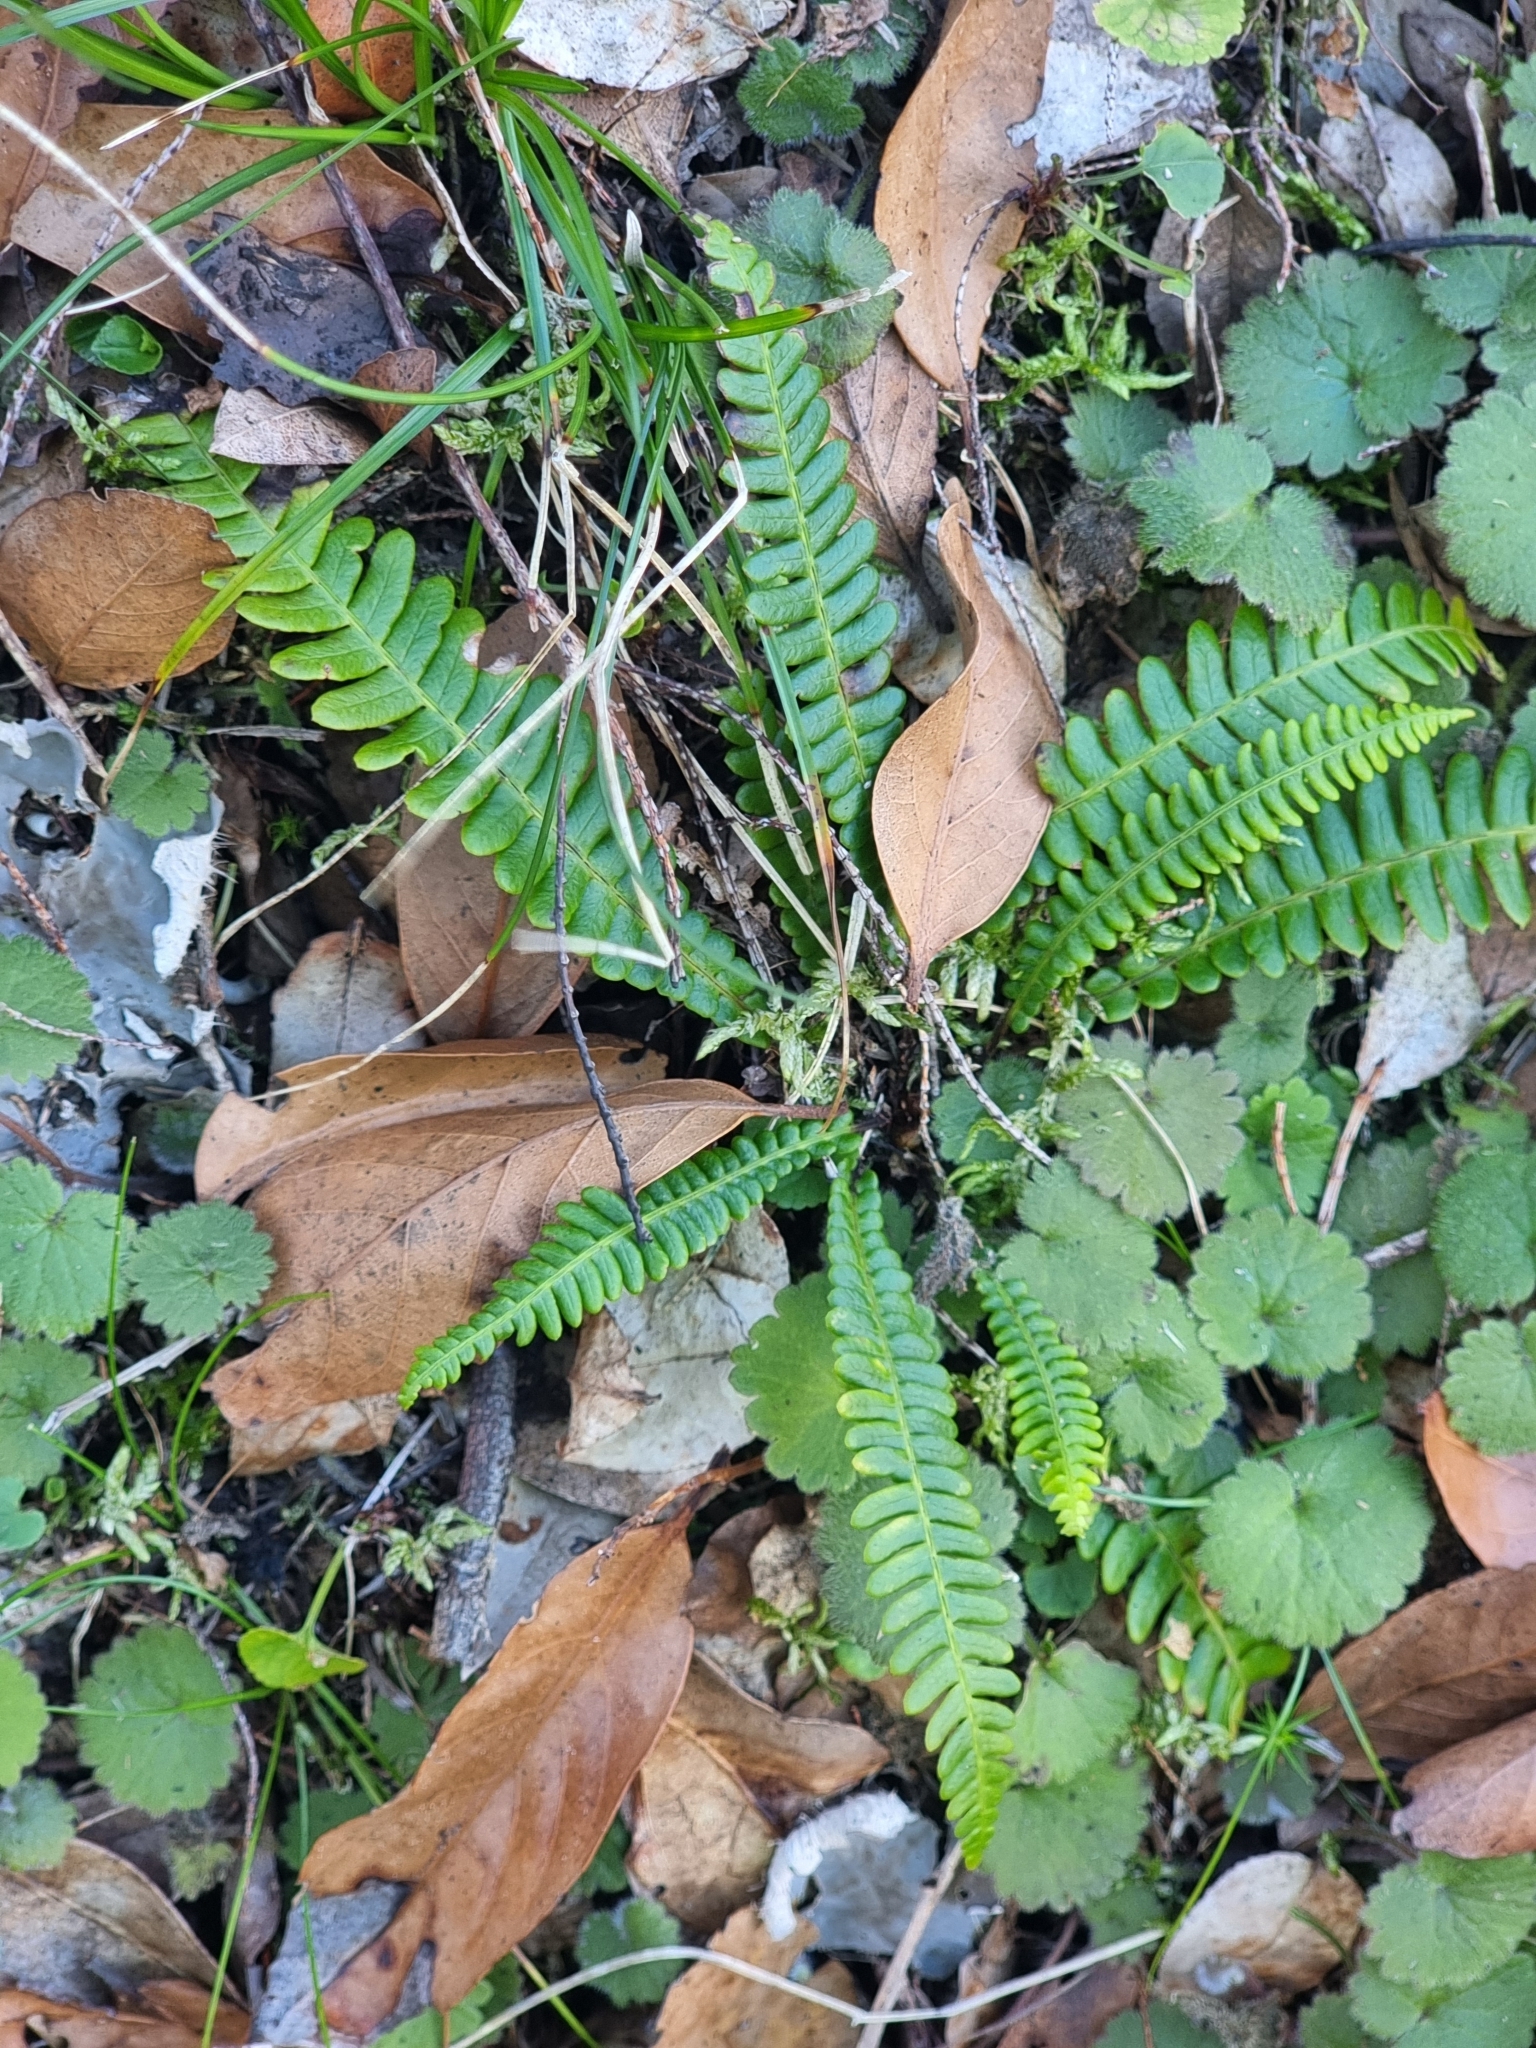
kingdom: Plantae
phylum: Tracheophyta
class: Polypodiopsida
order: Polypodiales
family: Blechnaceae
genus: Struthiopteris
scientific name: Struthiopteris spicant
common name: Deer fern
